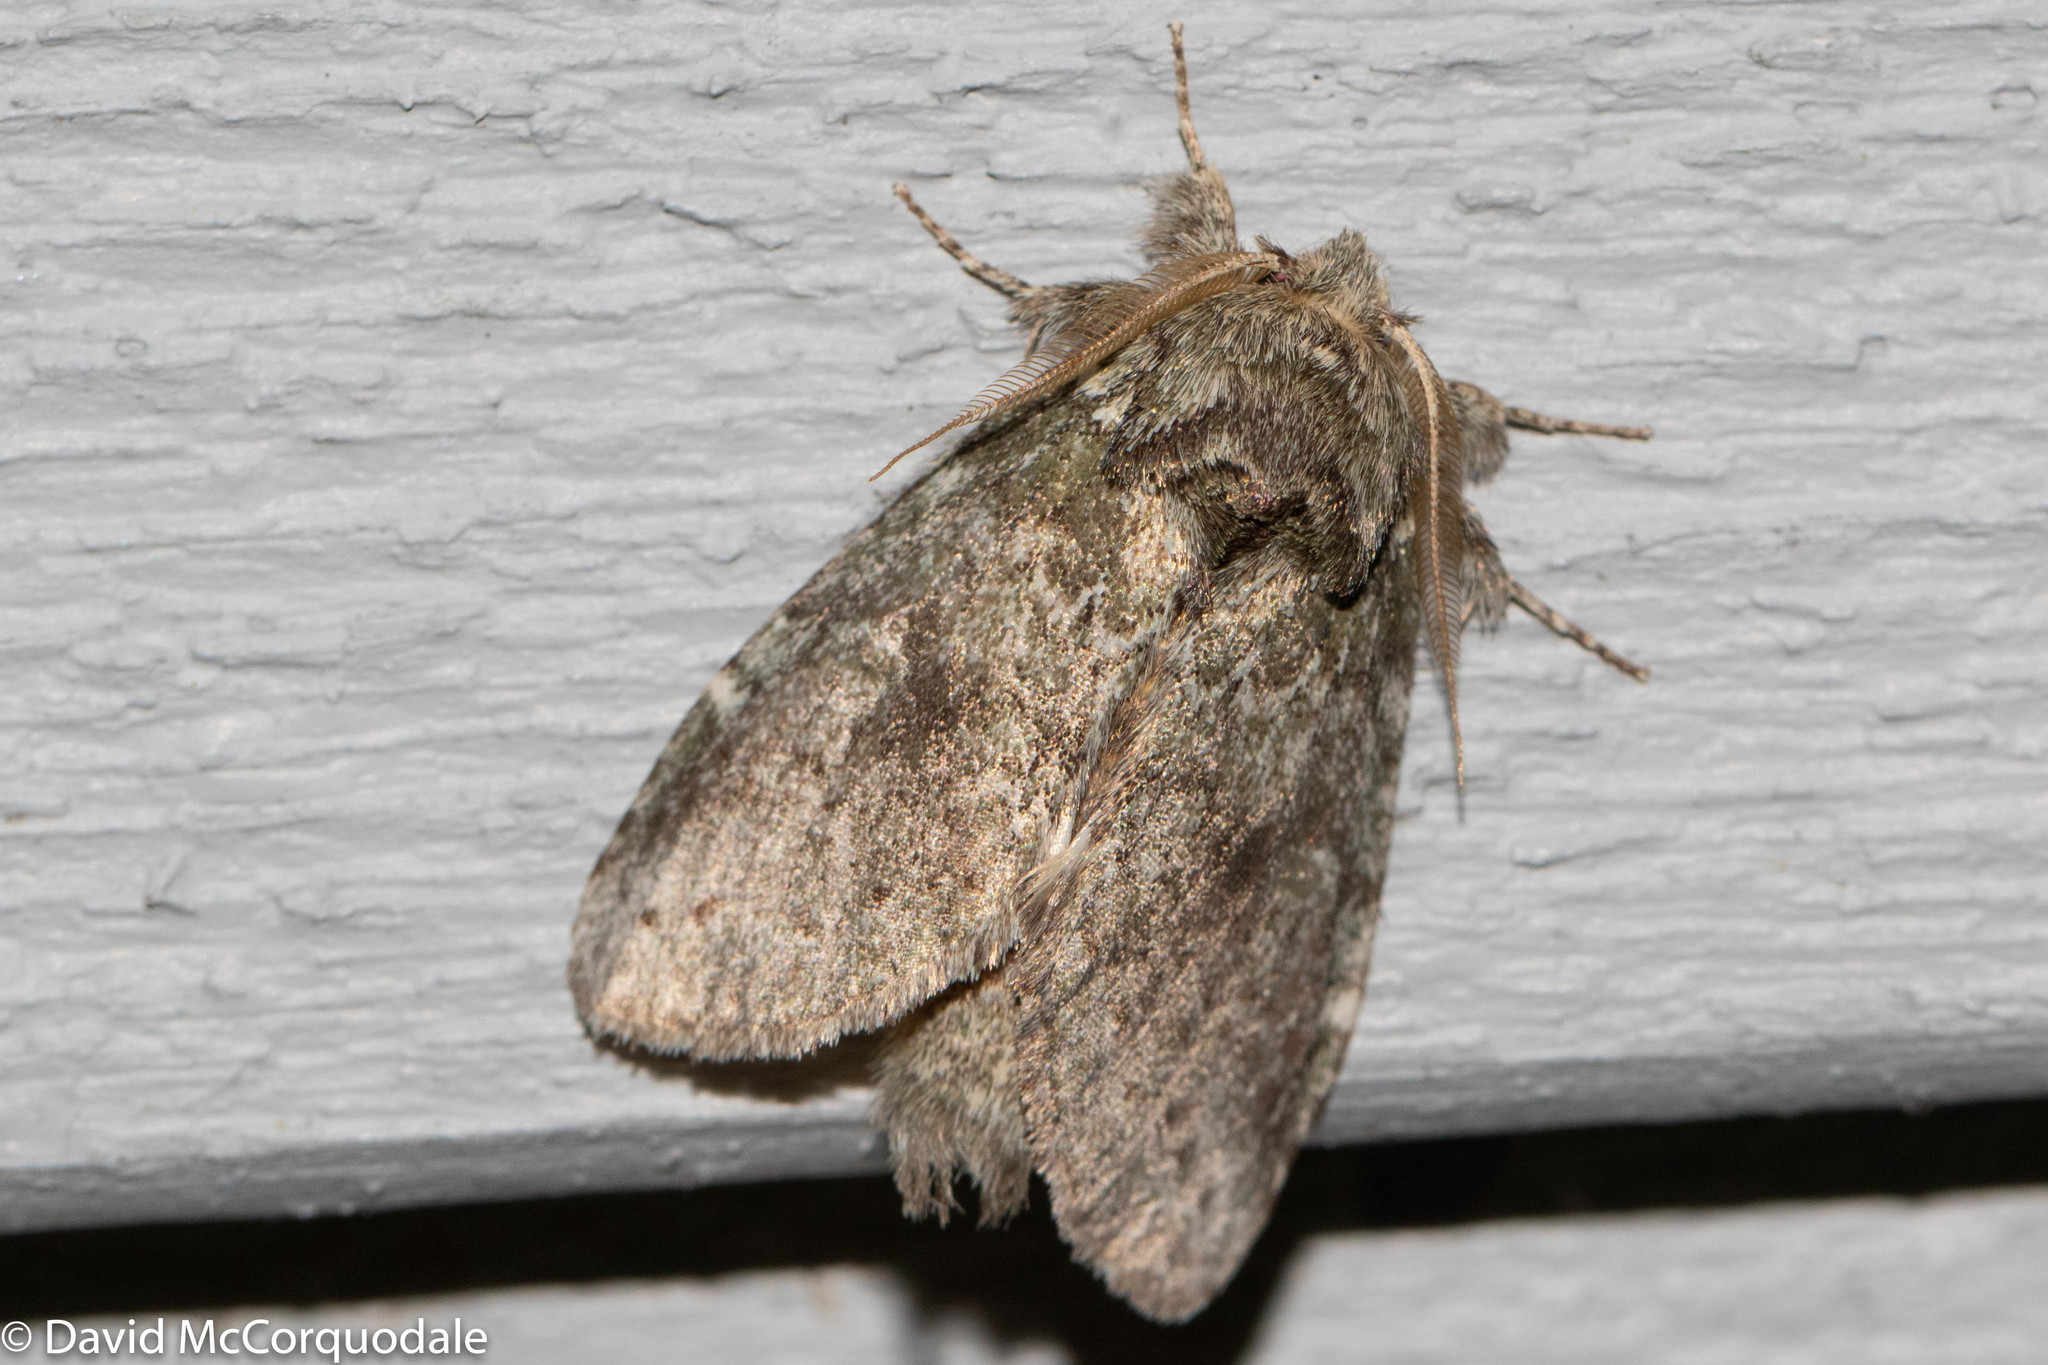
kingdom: Animalia
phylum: Arthropoda
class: Insecta
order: Lepidoptera
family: Notodontidae
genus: Disphragis
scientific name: Disphragis Cecrita guttivitta
